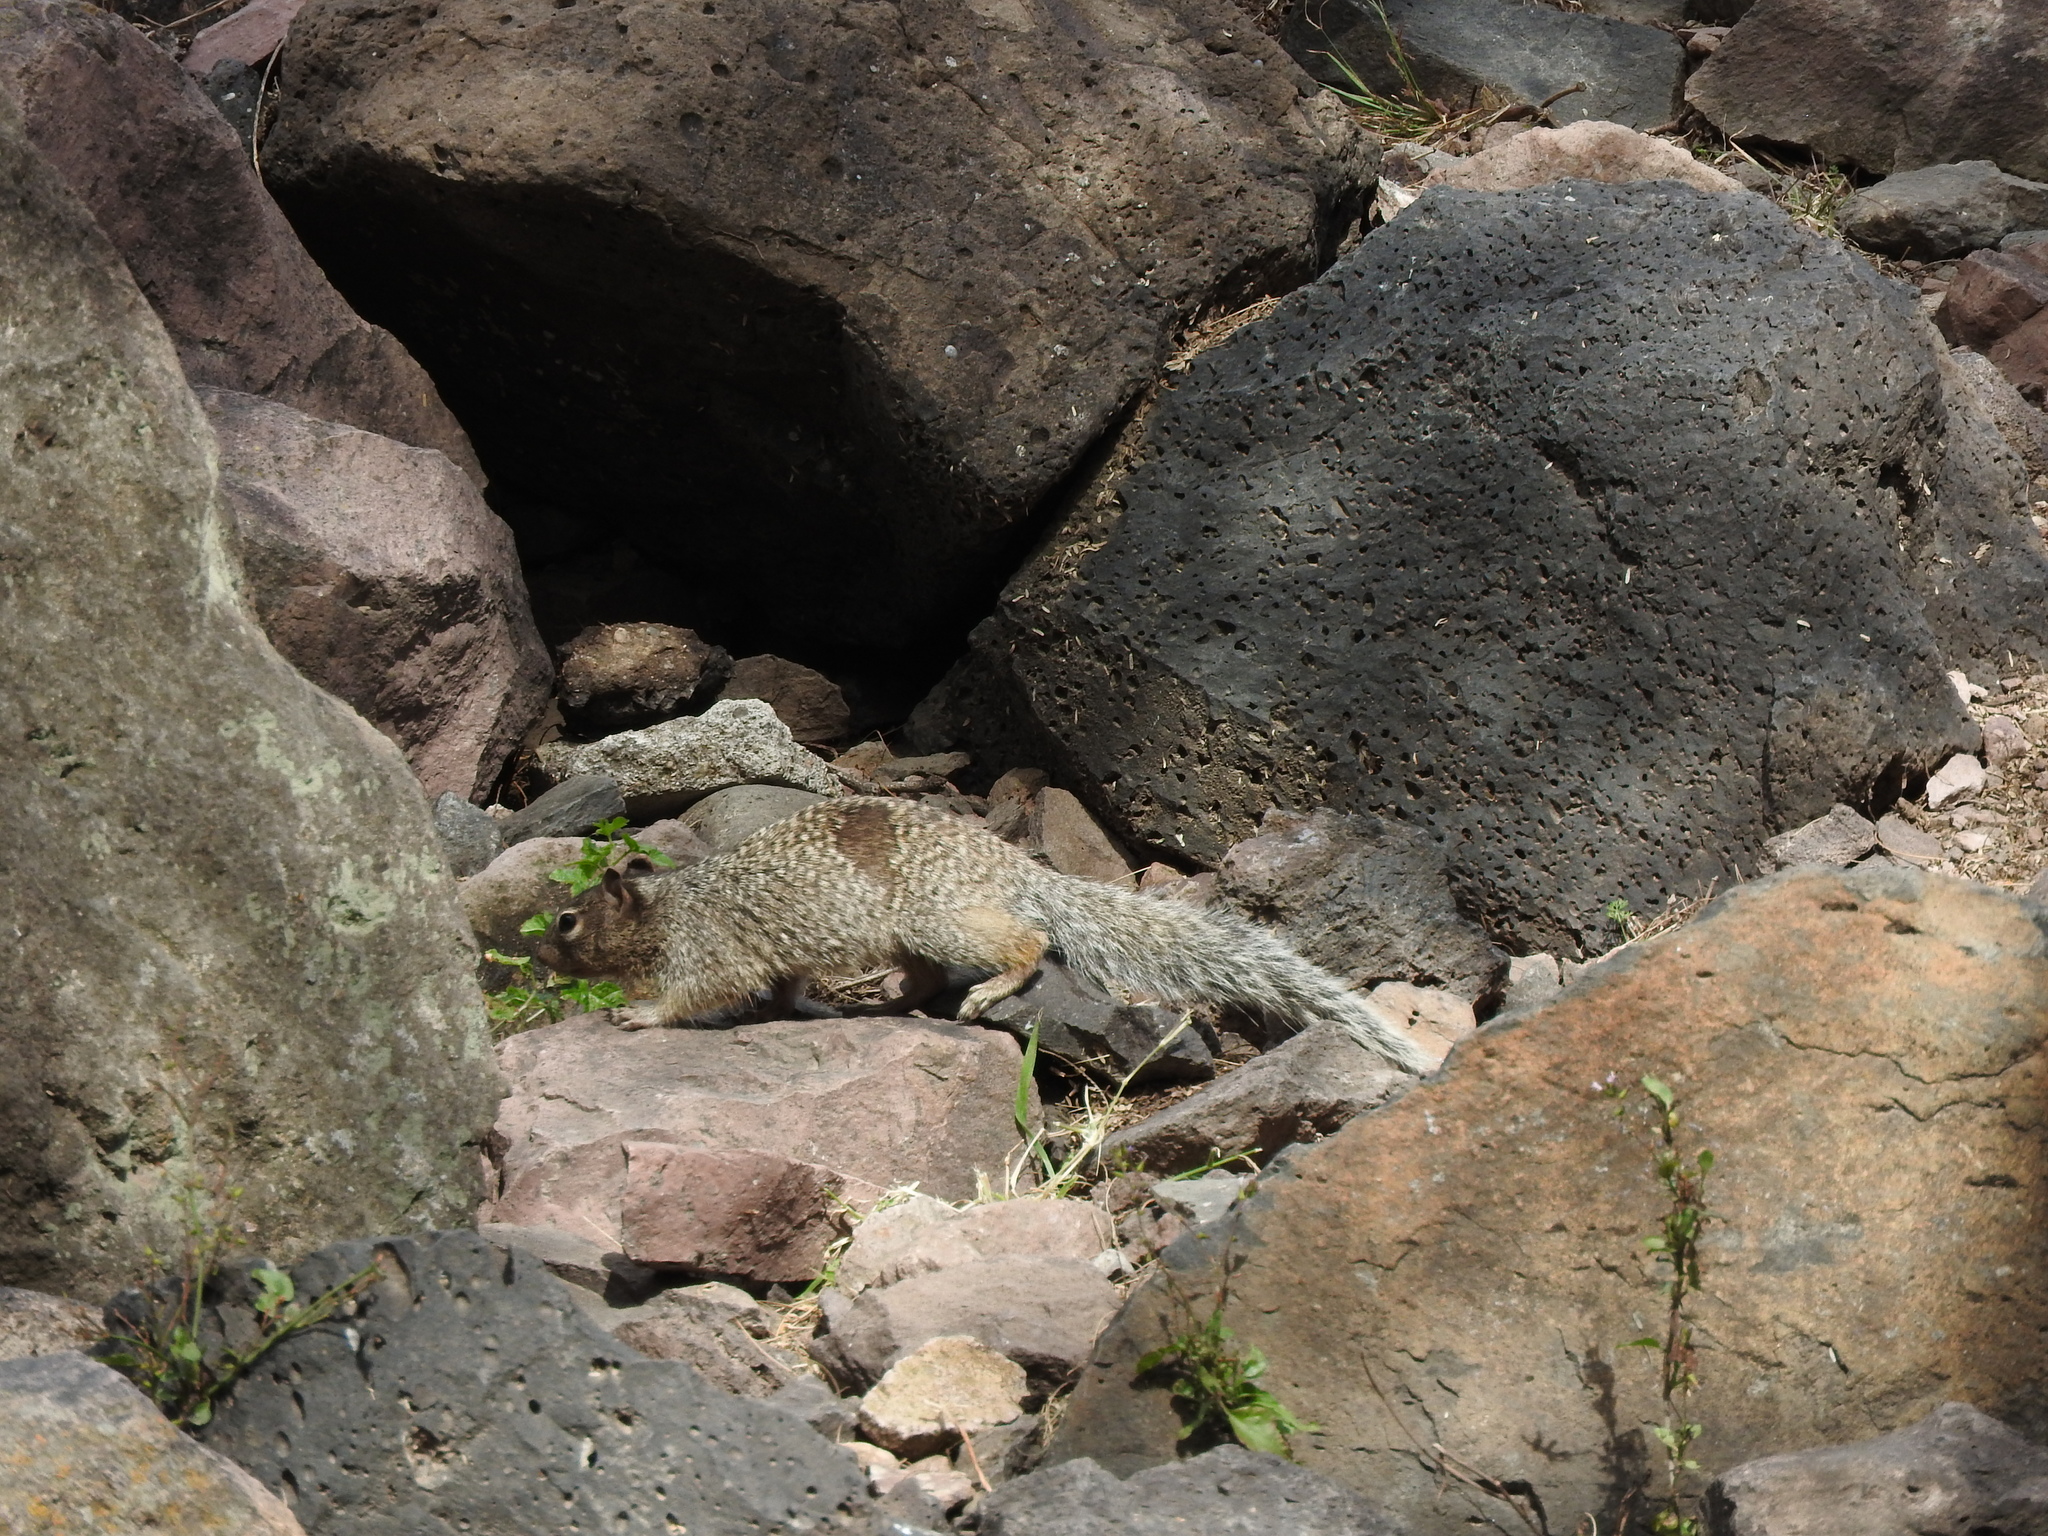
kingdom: Animalia
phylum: Chordata
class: Mammalia
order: Rodentia
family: Sciuridae
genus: Otospermophilus
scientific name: Otospermophilus variegatus
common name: Rock squirrel
